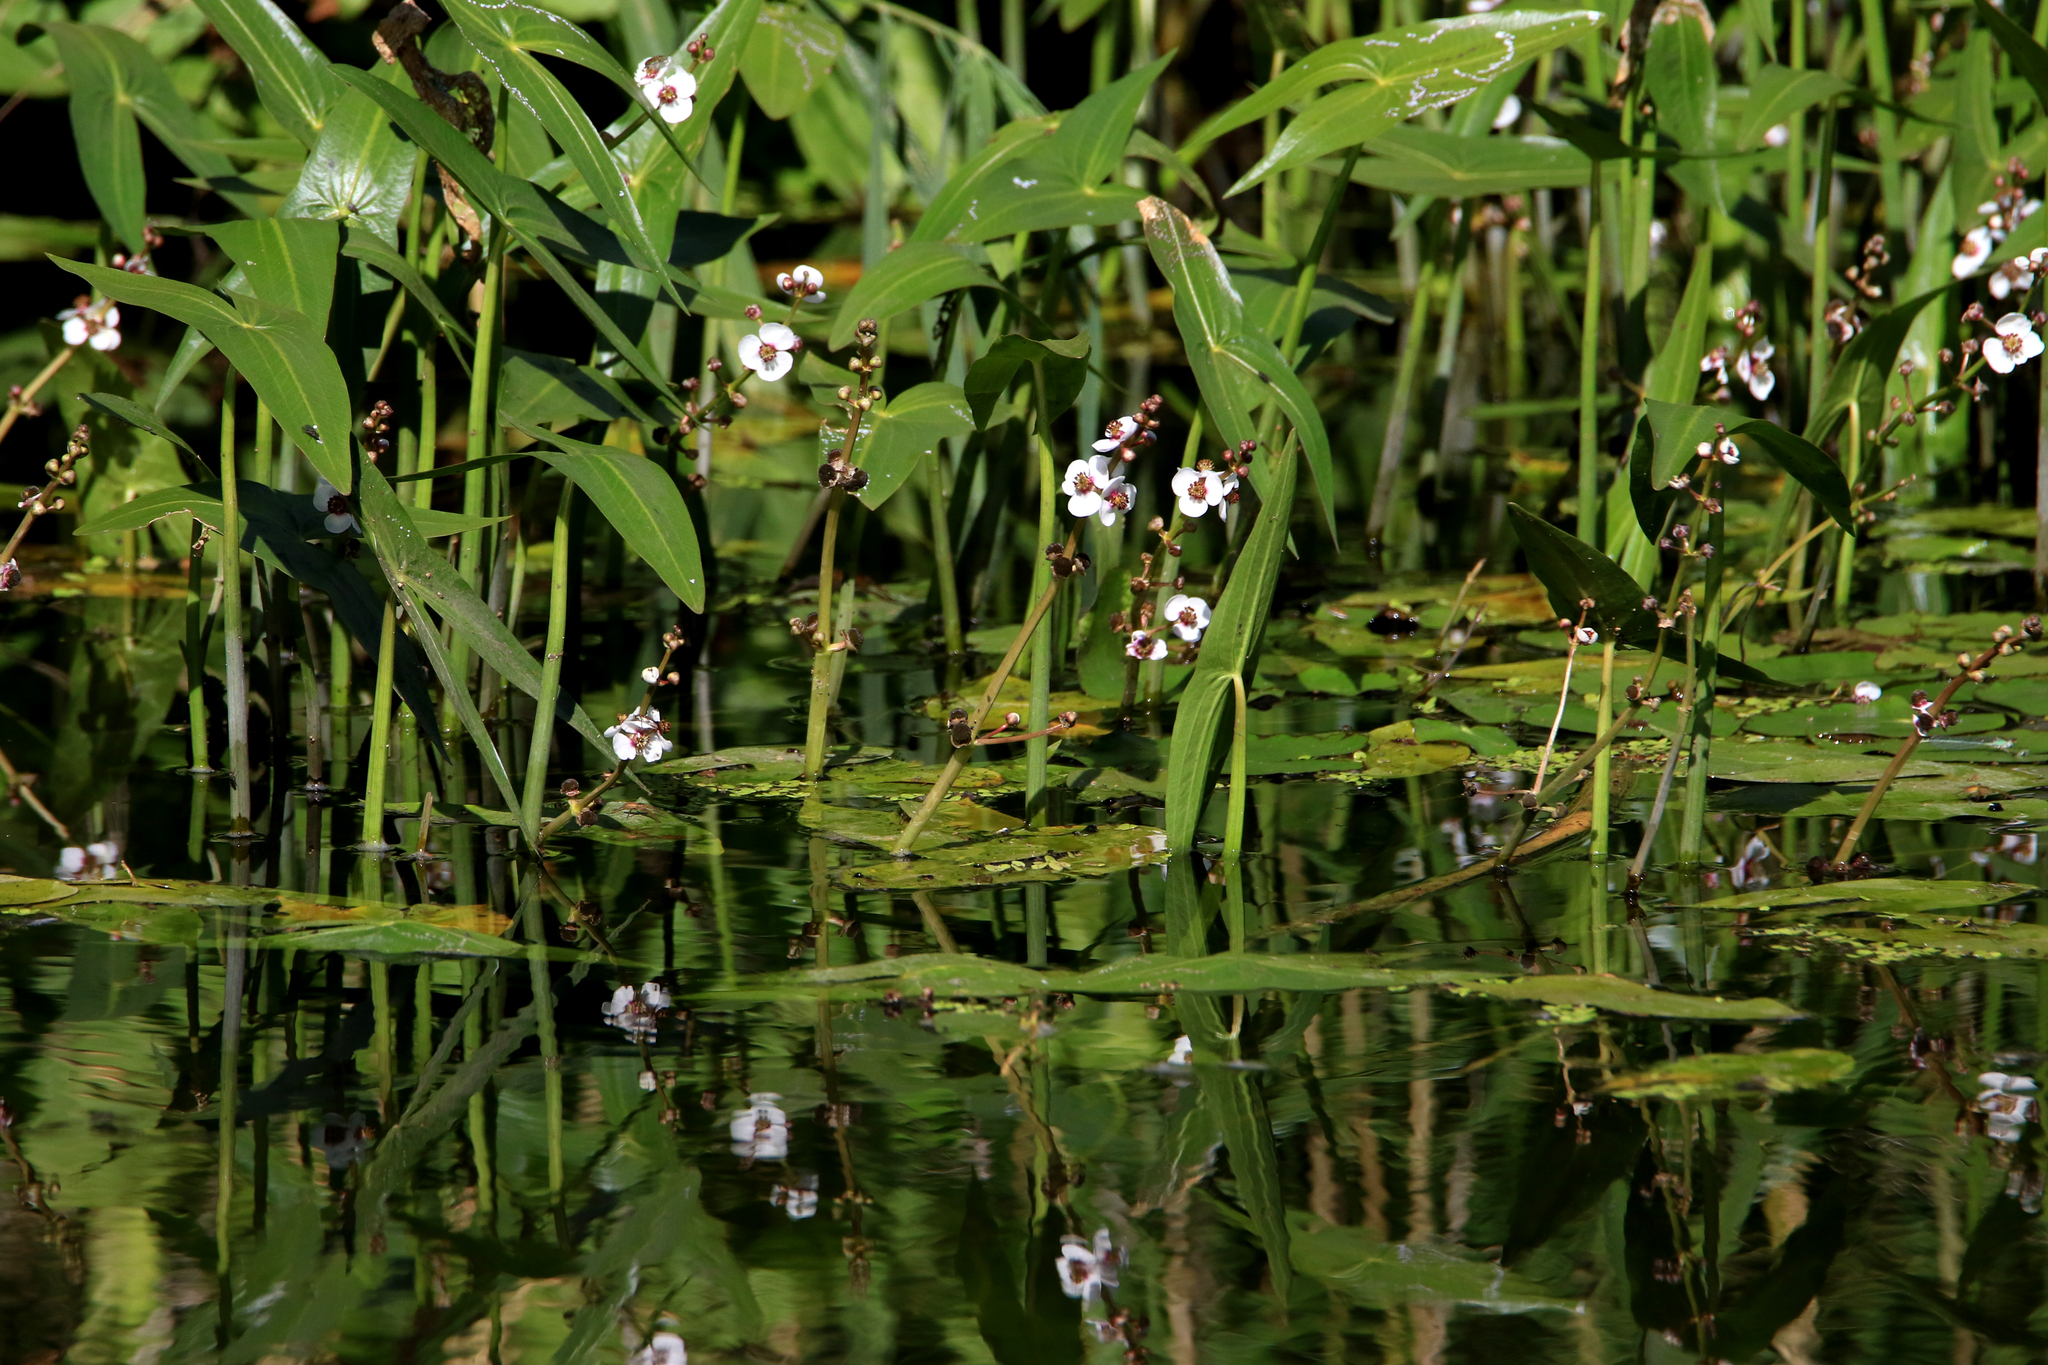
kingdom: Plantae
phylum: Tracheophyta
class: Liliopsida
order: Alismatales
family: Alismataceae
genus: Sagittaria
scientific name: Sagittaria sagittifolia
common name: Arrowhead
